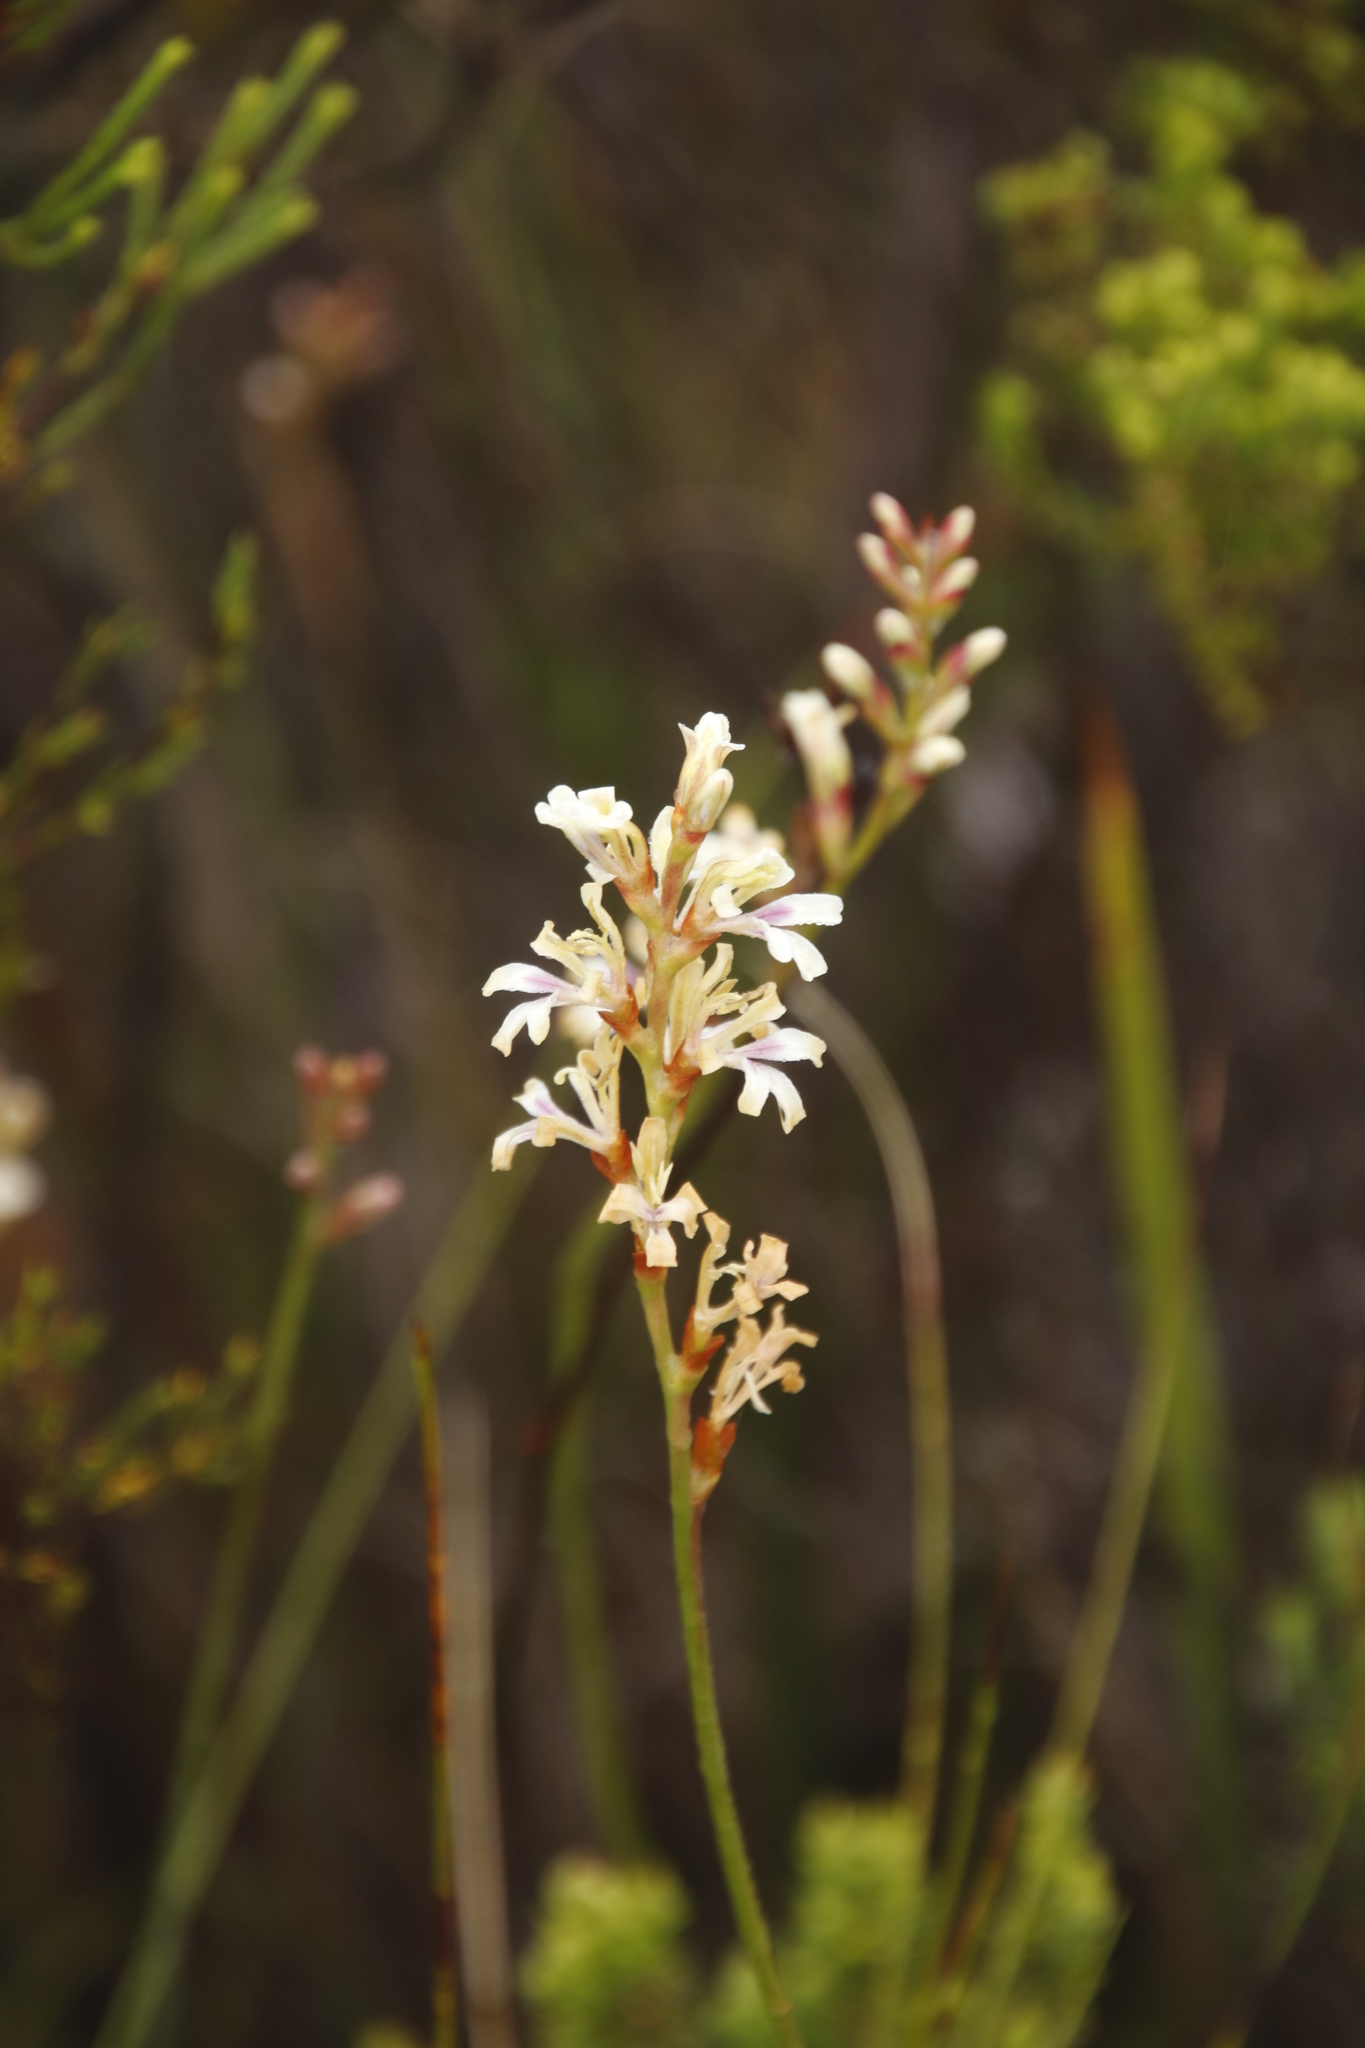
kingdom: Plantae
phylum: Tracheophyta
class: Liliopsida
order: Asparagales
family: Iridaceae
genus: Tritoniopsis
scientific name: Tritoniopsis unguicularis
